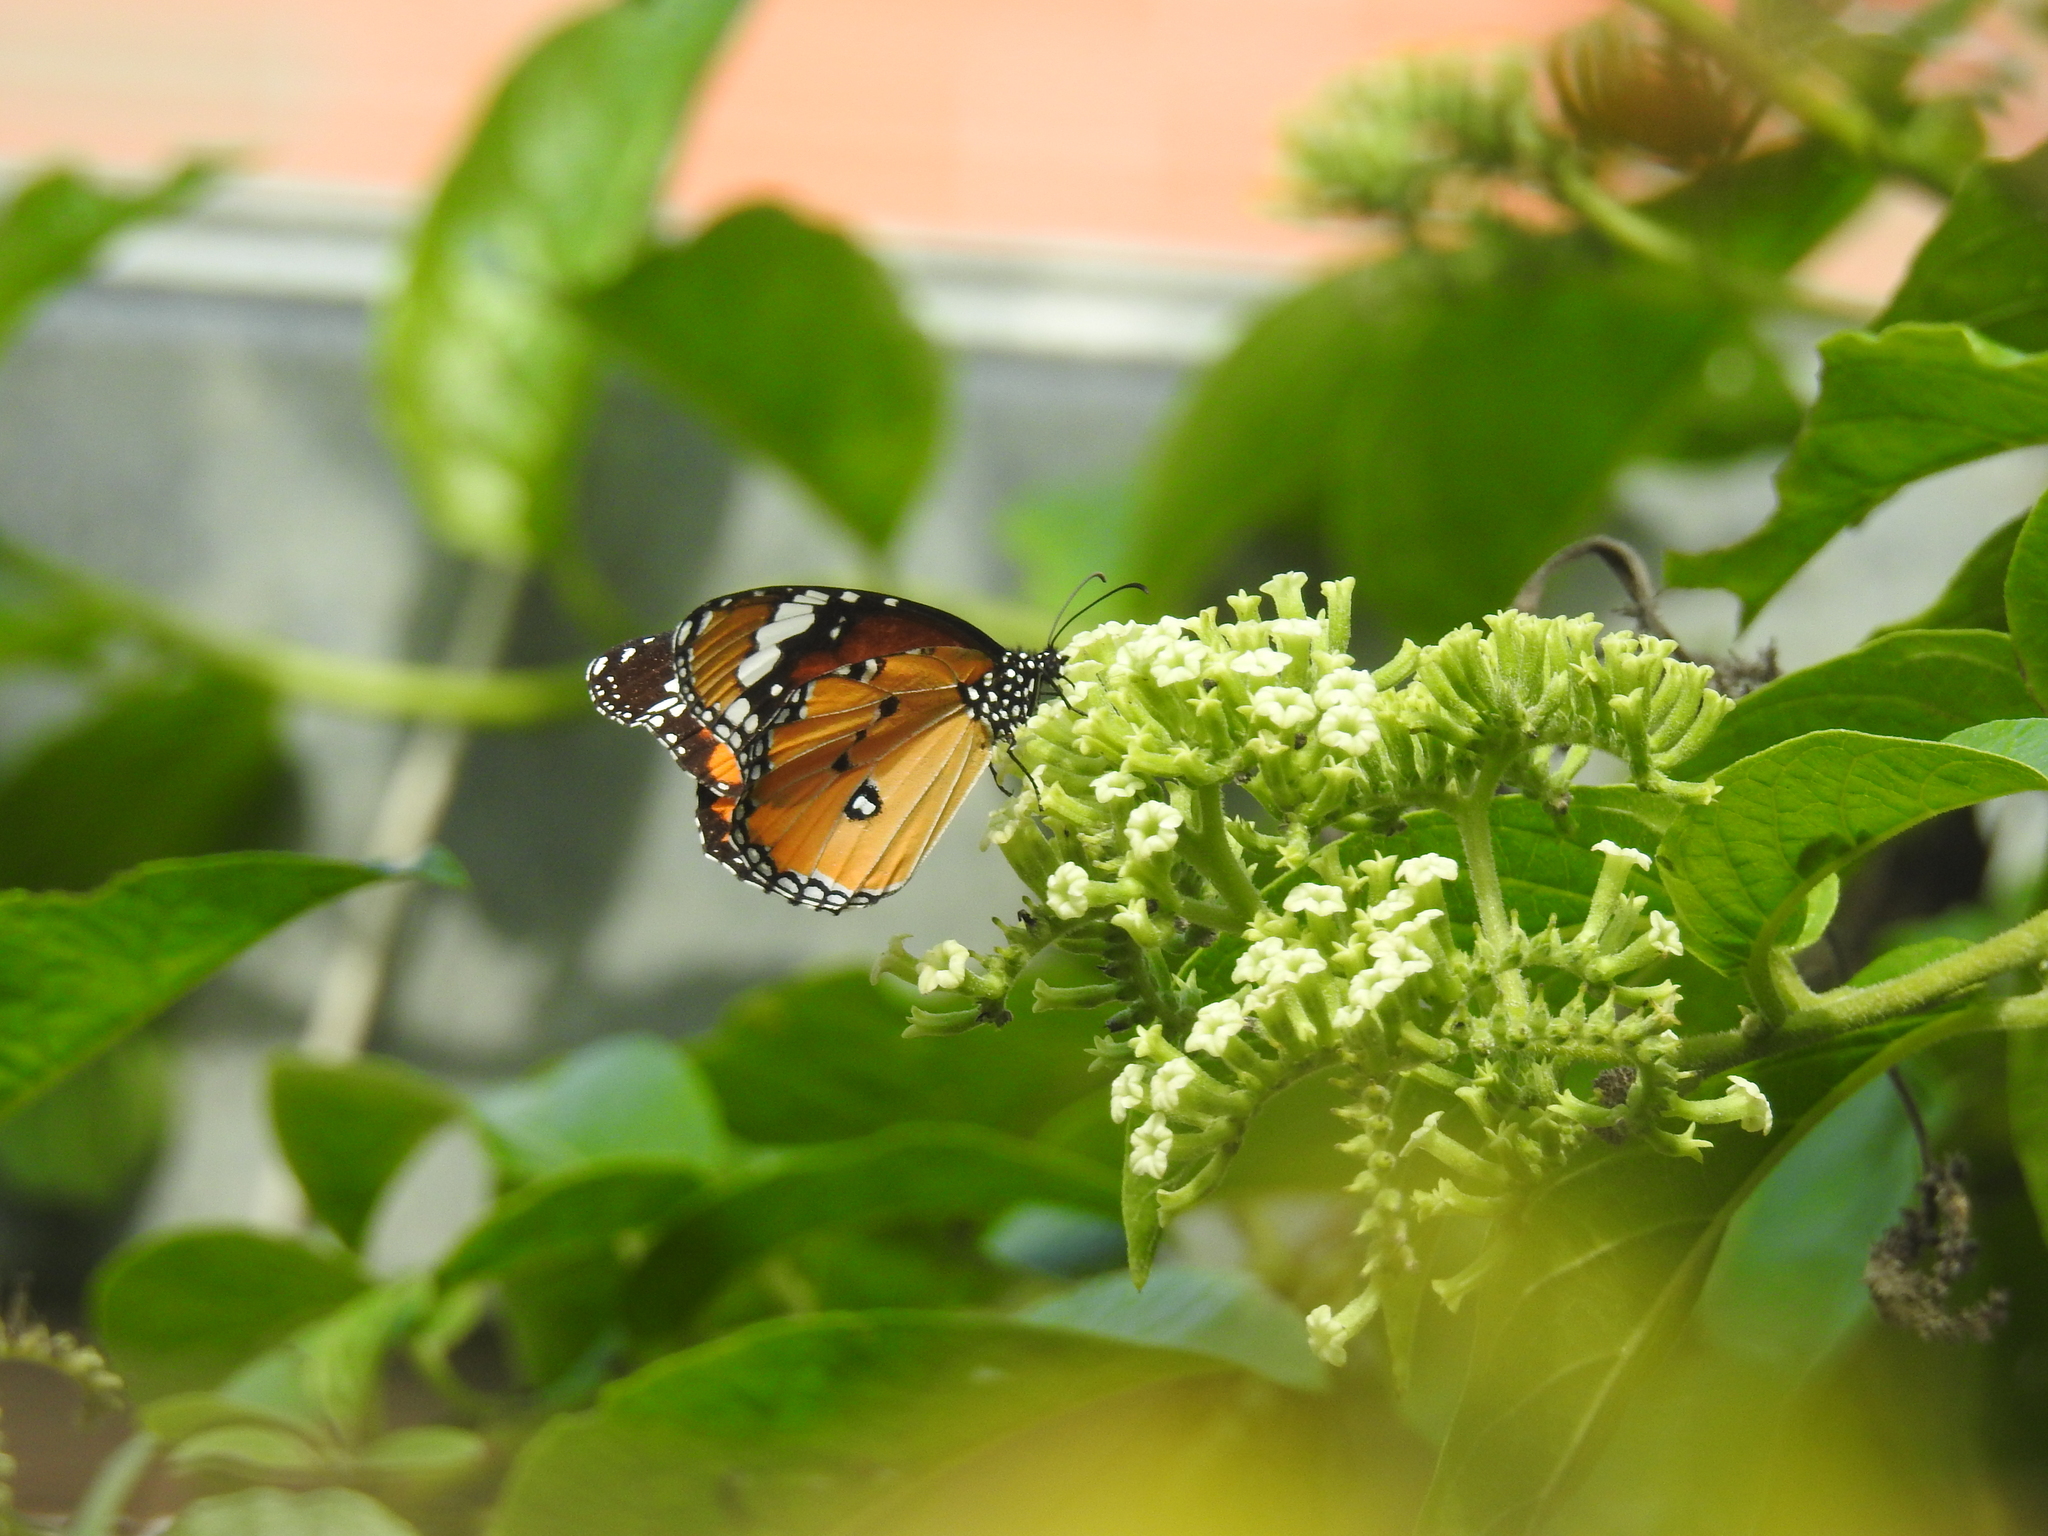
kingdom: Animalia
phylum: Arthropoda
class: Insecta
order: Lepidoptera
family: Nymphalidae
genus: Danaus
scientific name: Danaus chrysippus
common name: Plain tiger
